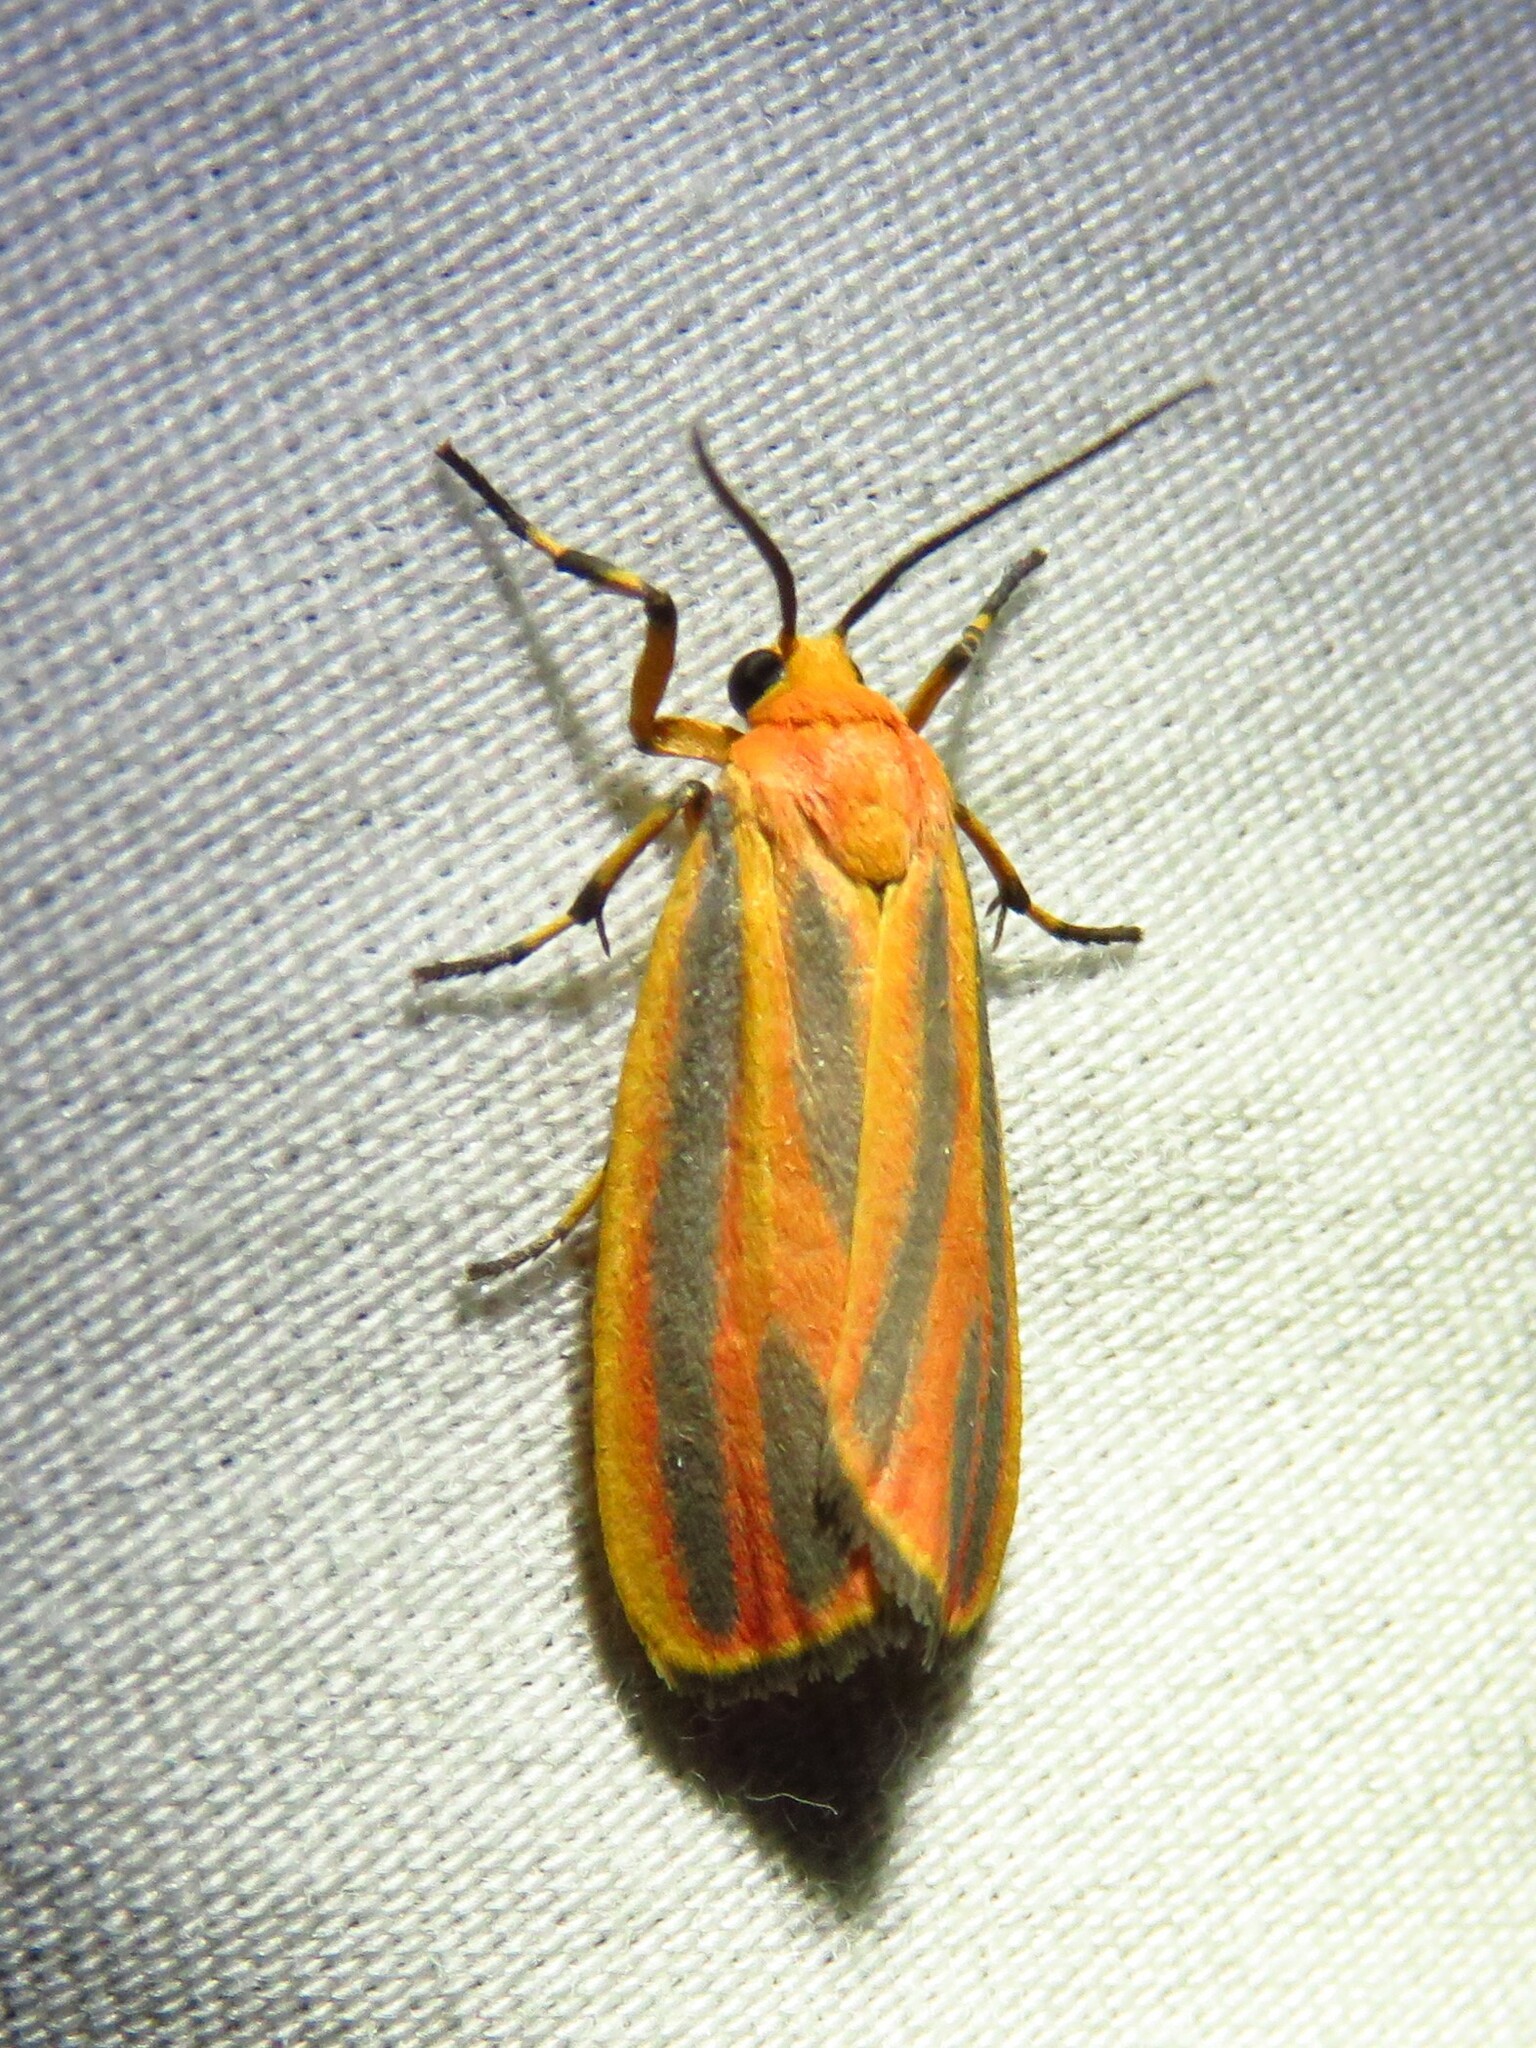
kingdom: Animalia
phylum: Arthropoda
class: Insecta
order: Lepidoptera
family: Erebidae
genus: Hypoprepia
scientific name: Hypoprepia fucosa
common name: Painted lichen moth
